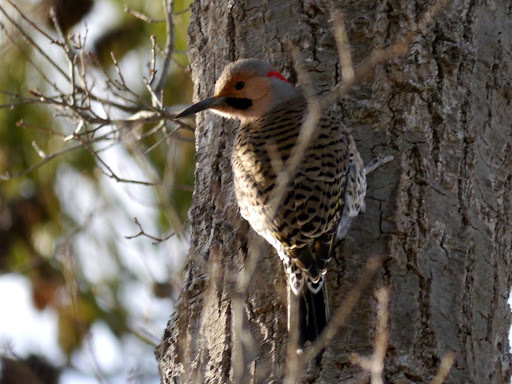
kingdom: Animalia
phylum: Chordata
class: Aves
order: Piciformes
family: Picidae
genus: Colaptes
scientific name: Colaptes auratus
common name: Northern flicker
